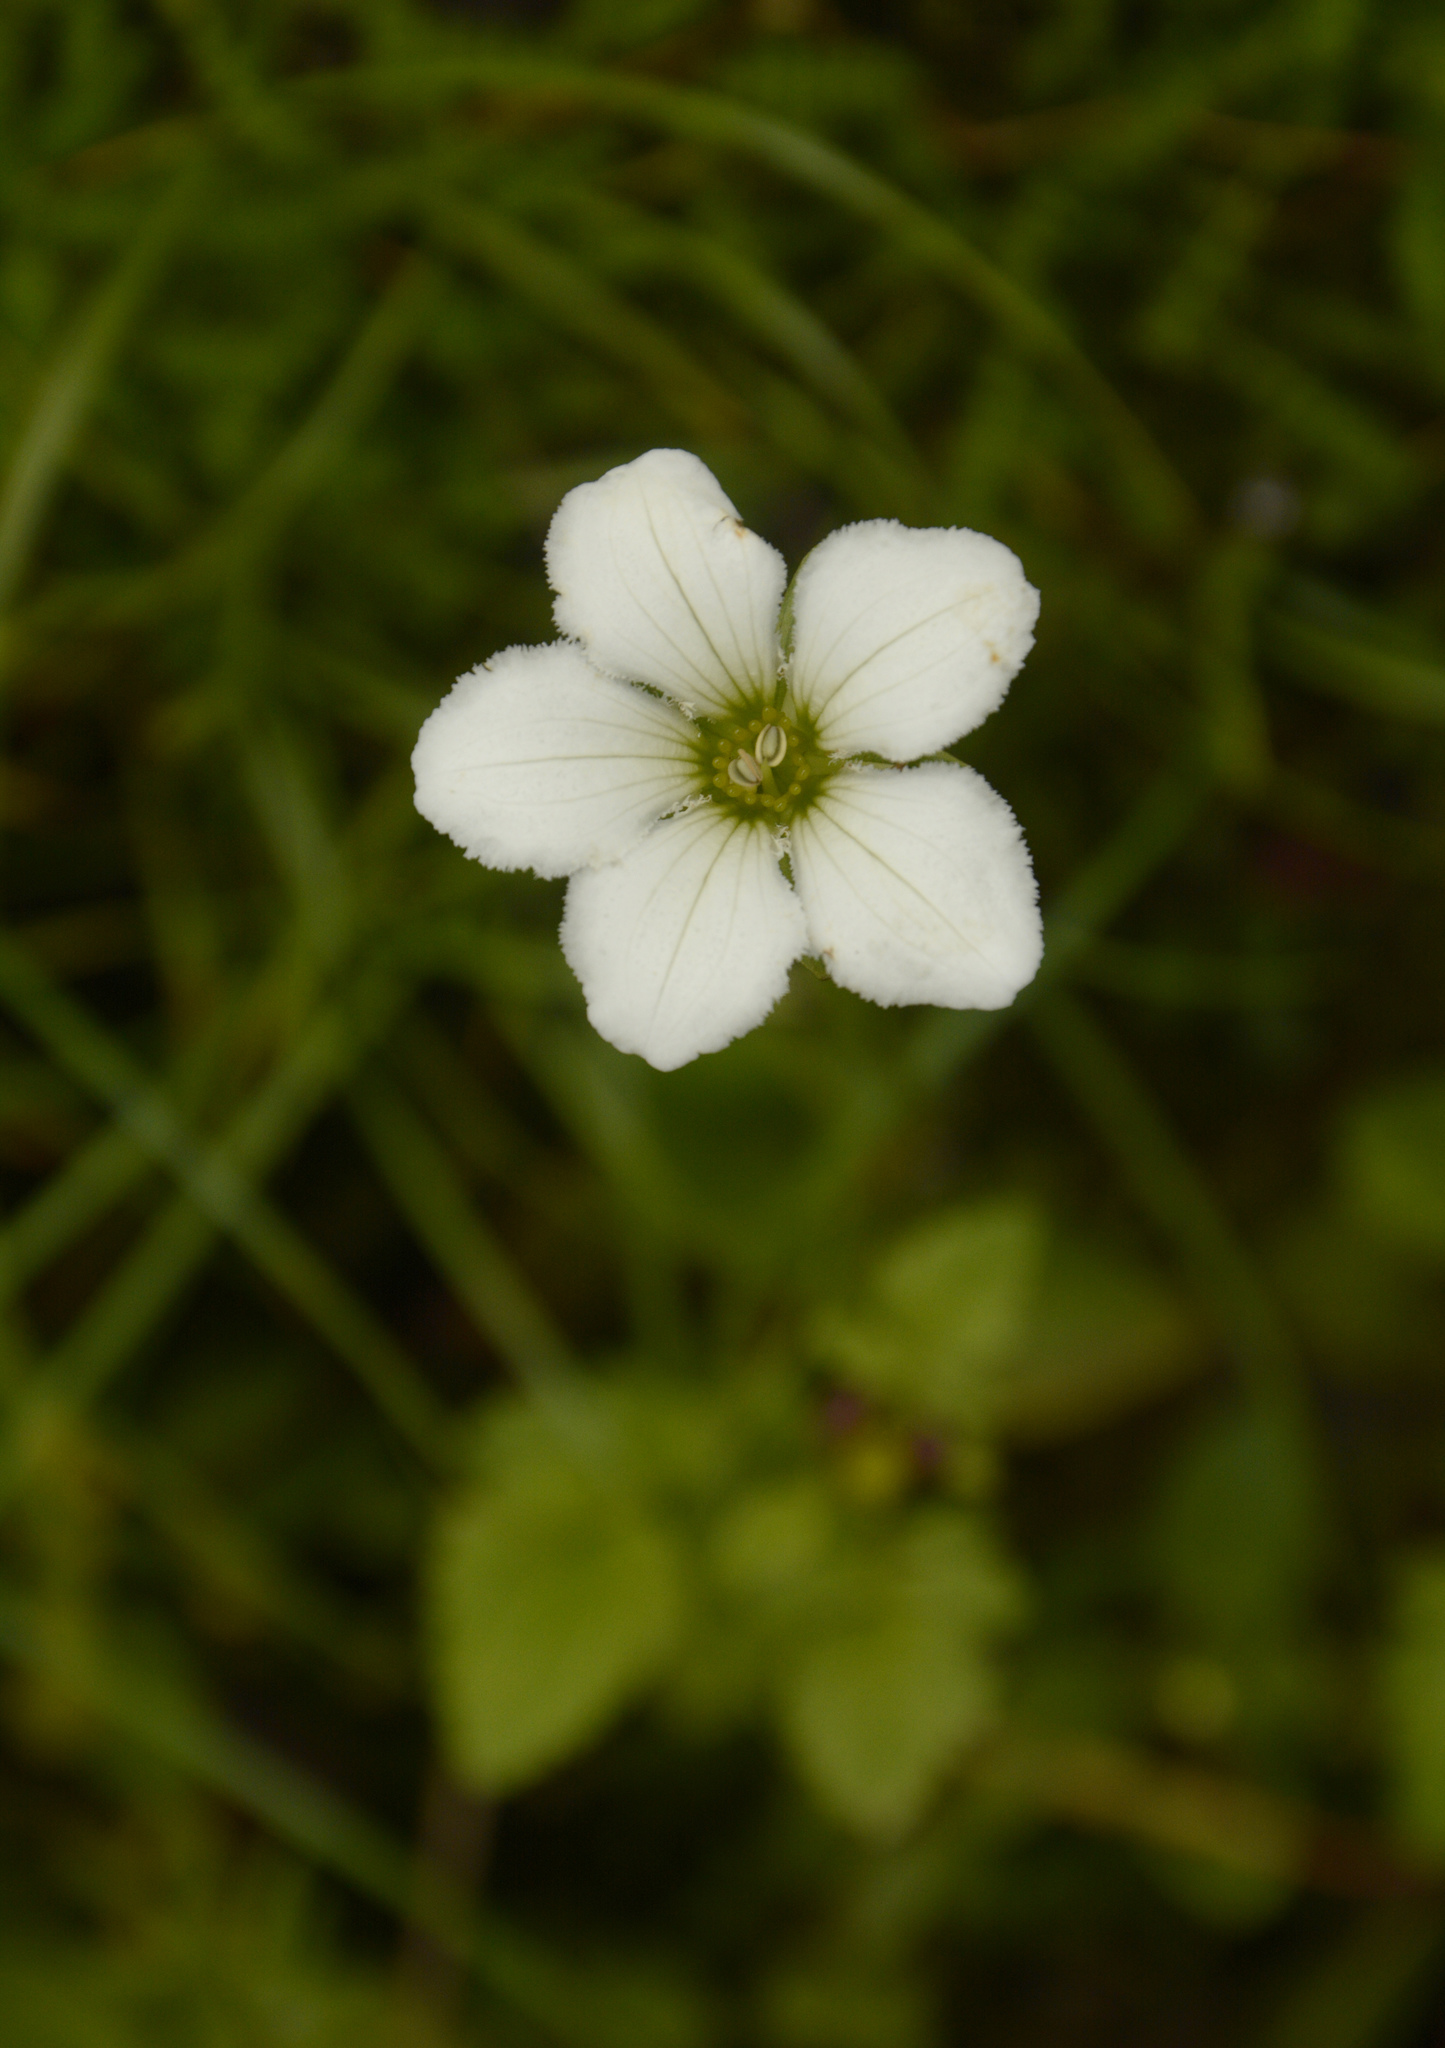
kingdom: Plantae
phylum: Tracheophyta
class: Magnoliopsida
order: Celastrales
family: Parnassiaceae
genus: Parnassia
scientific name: Parnassia nubicola
